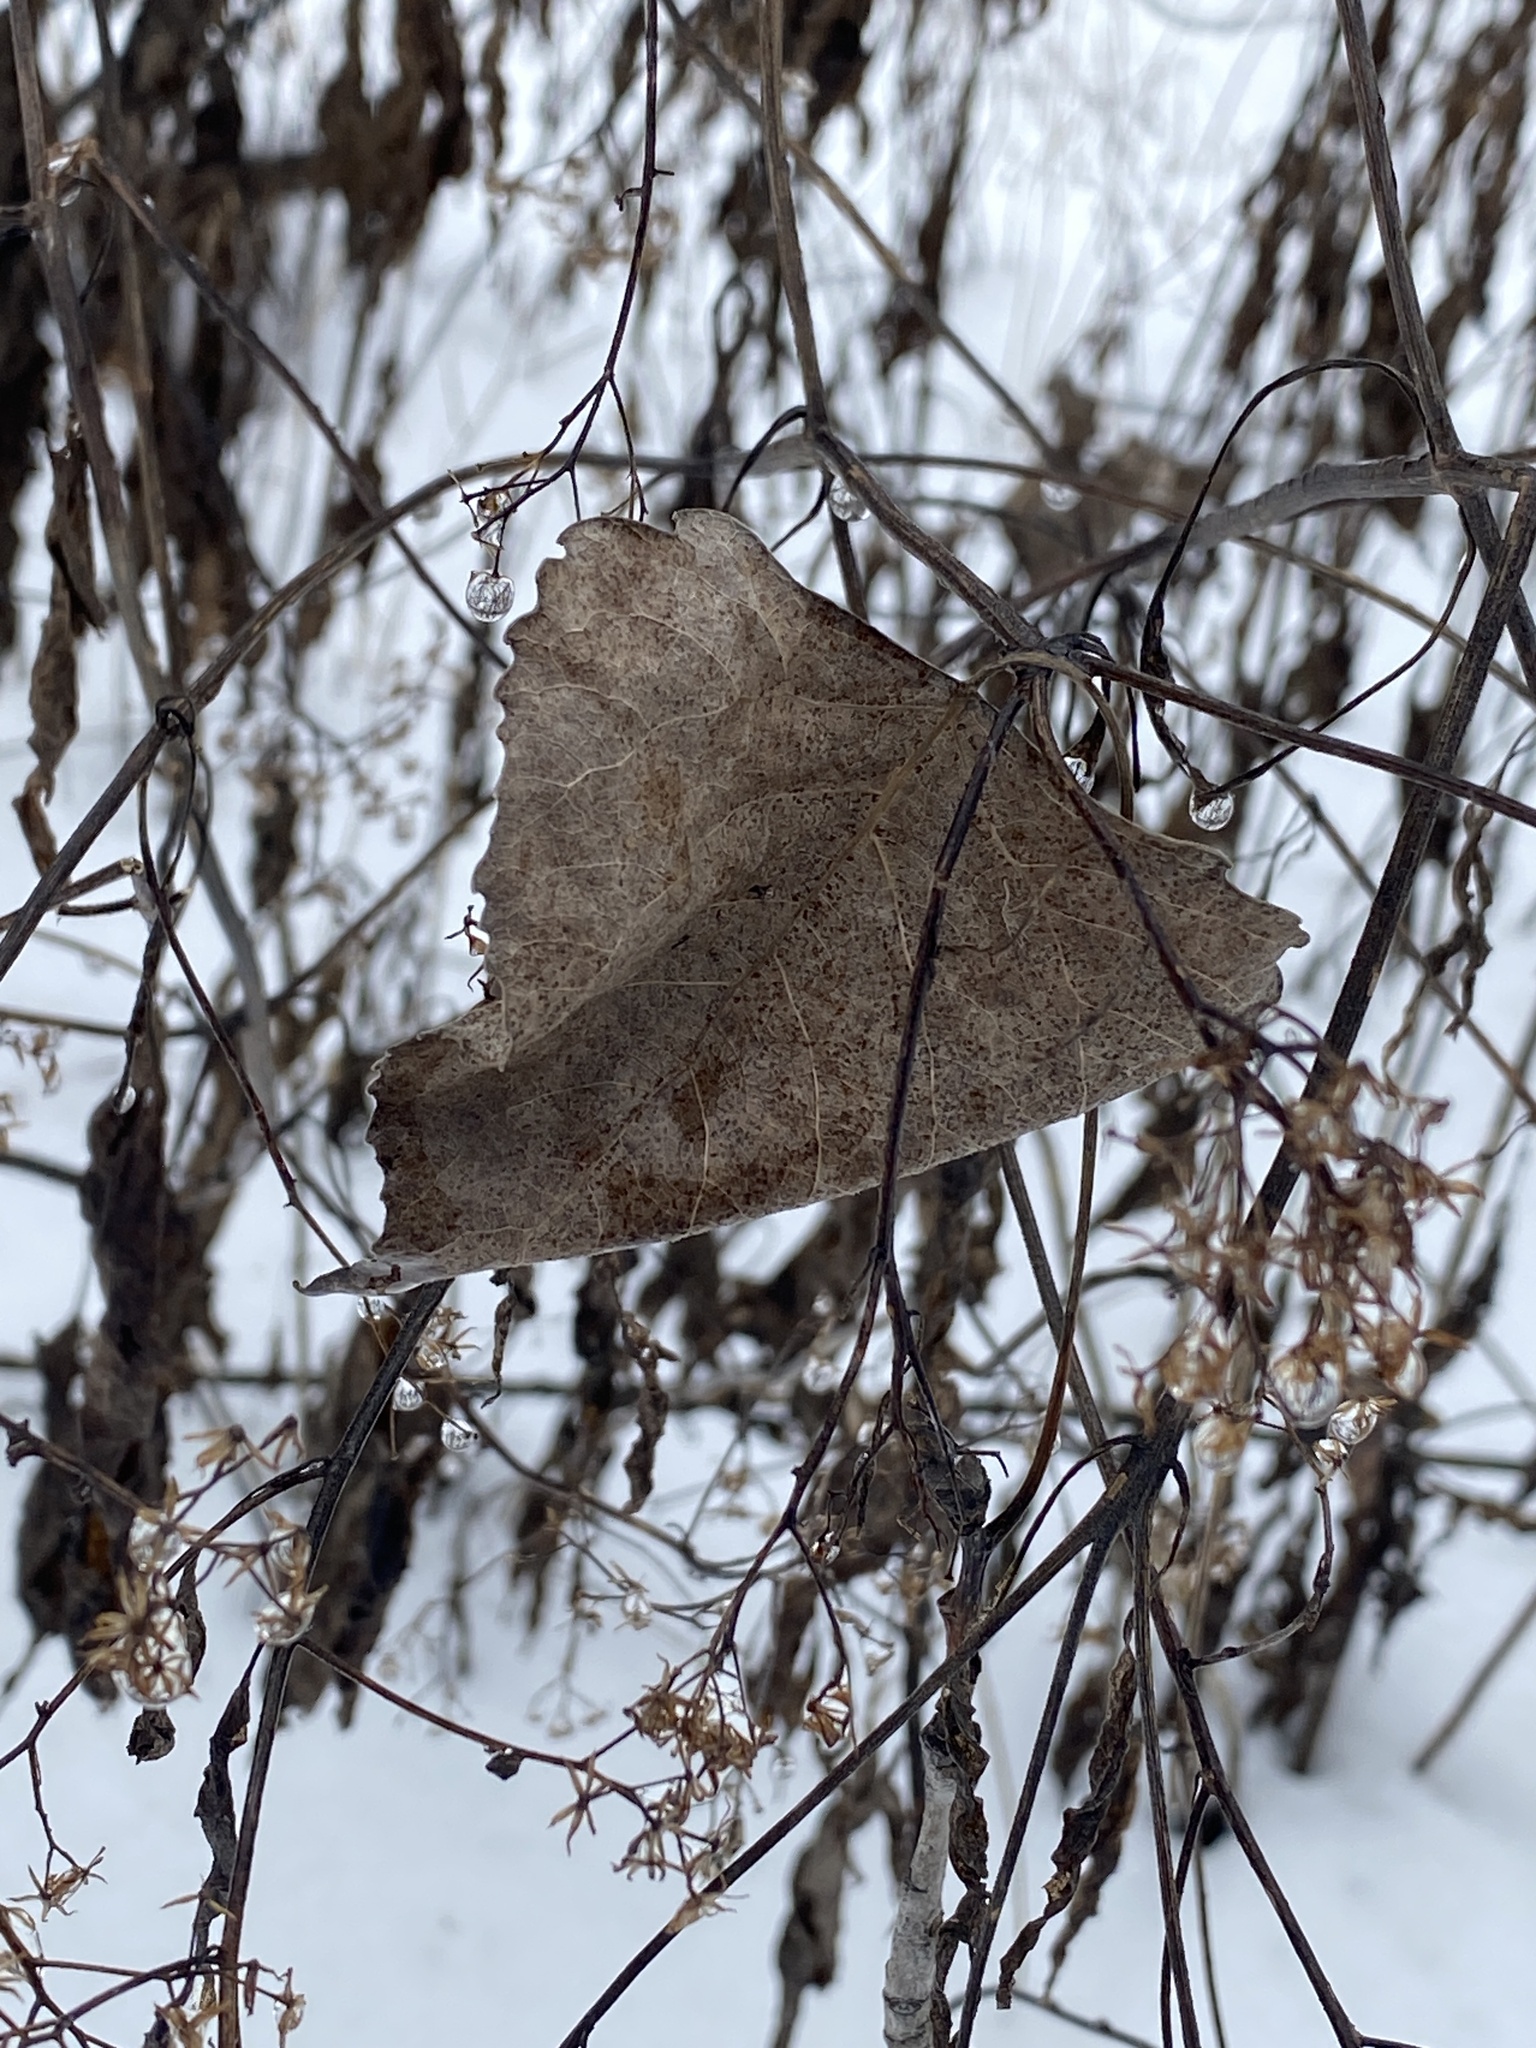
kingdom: Plantae
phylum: Tracheophyta
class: Magnoliopsida
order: Malpighiales
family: Salicaceae
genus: Populus
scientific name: Populus deltoides
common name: Eastern cottonwood
